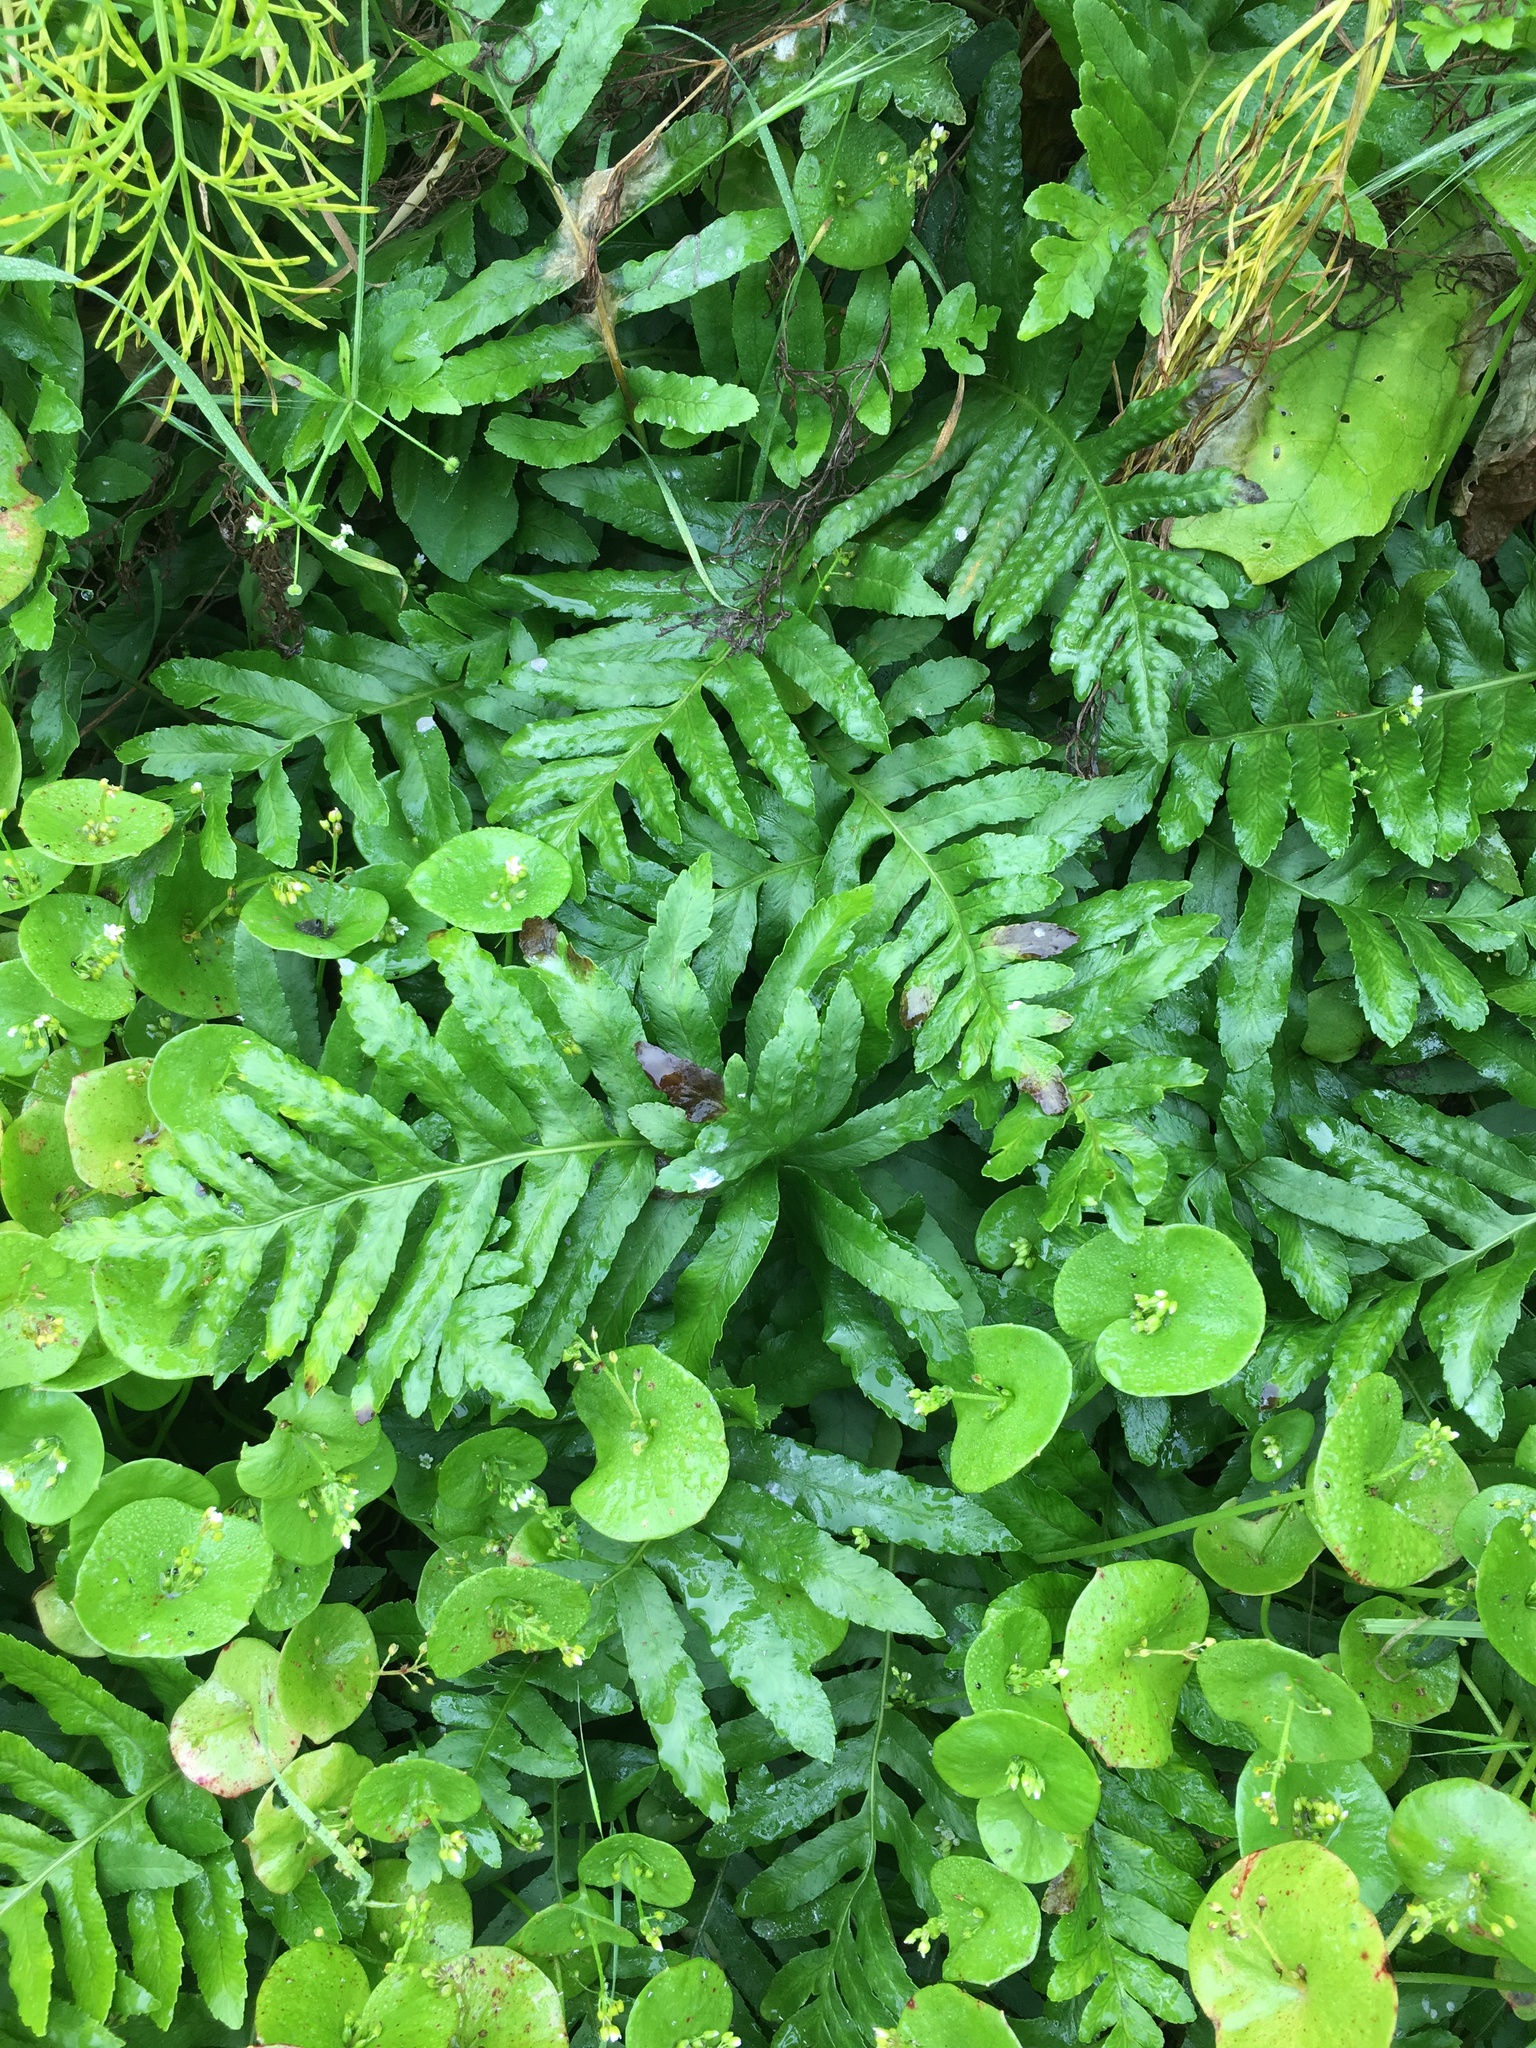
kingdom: Plantae
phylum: Tracheophyta
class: Polypodiopsida
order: Polypodiales
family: Polypodiaceae
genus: Polypodium
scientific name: Polypodium californicum
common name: California polypody
